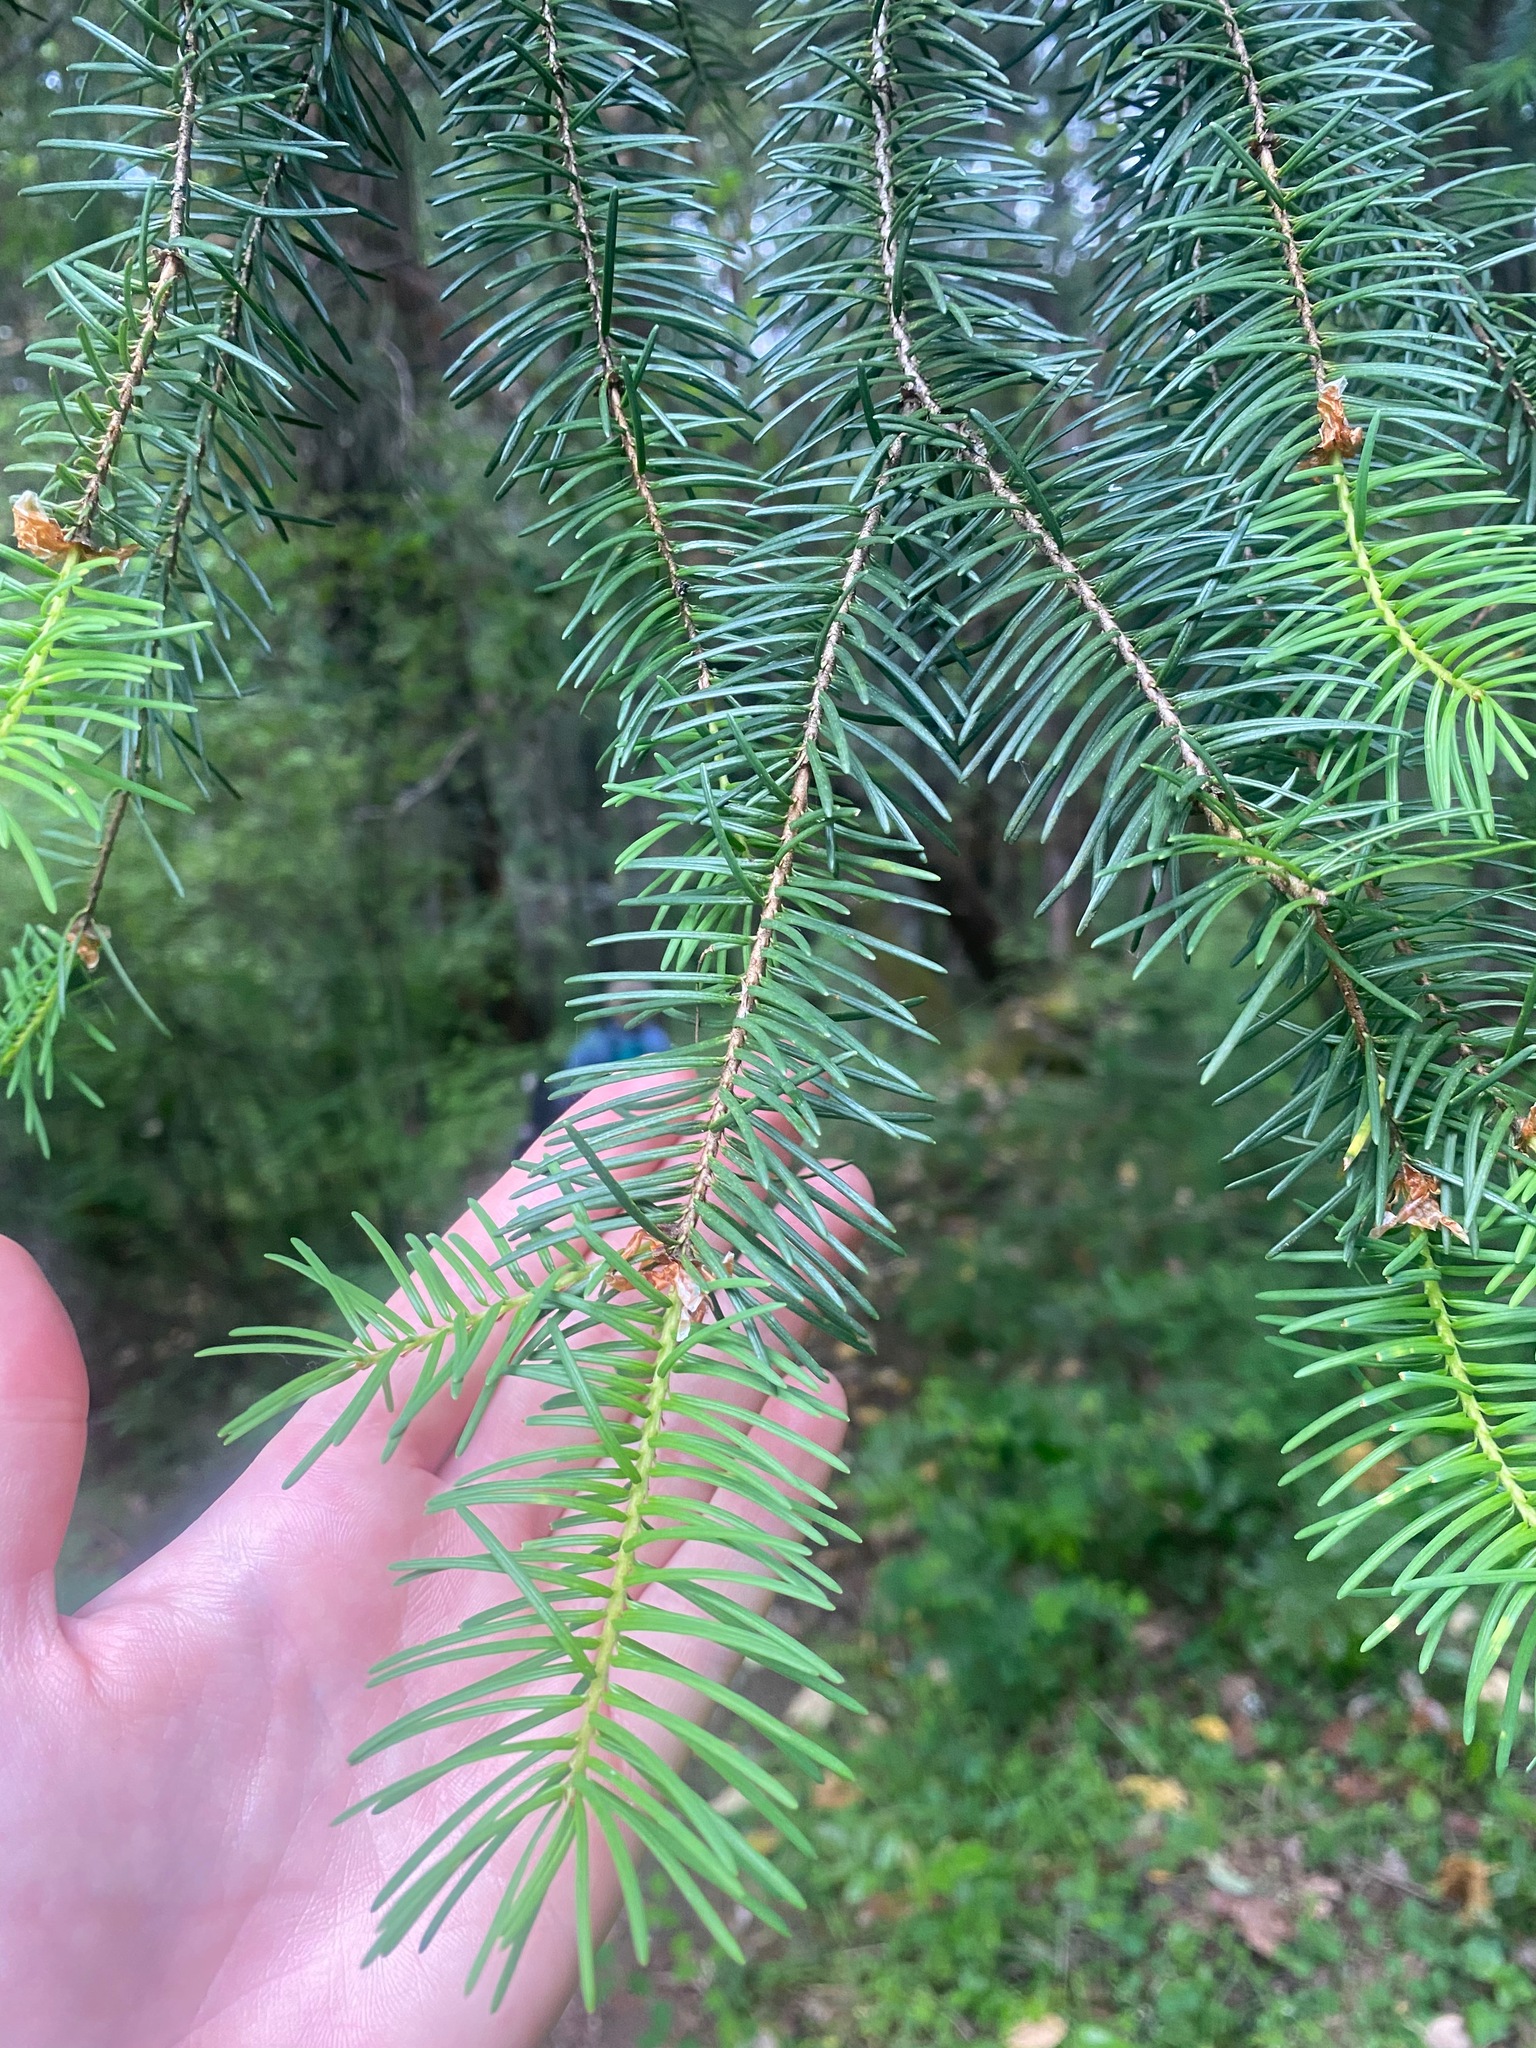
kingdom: Plantae
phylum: Tracheophyta
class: Pinopsida
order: Pinales
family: Pinaceae
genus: Pseudotsuga
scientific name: Pseudotsuga menziesii
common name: Douglas fir
